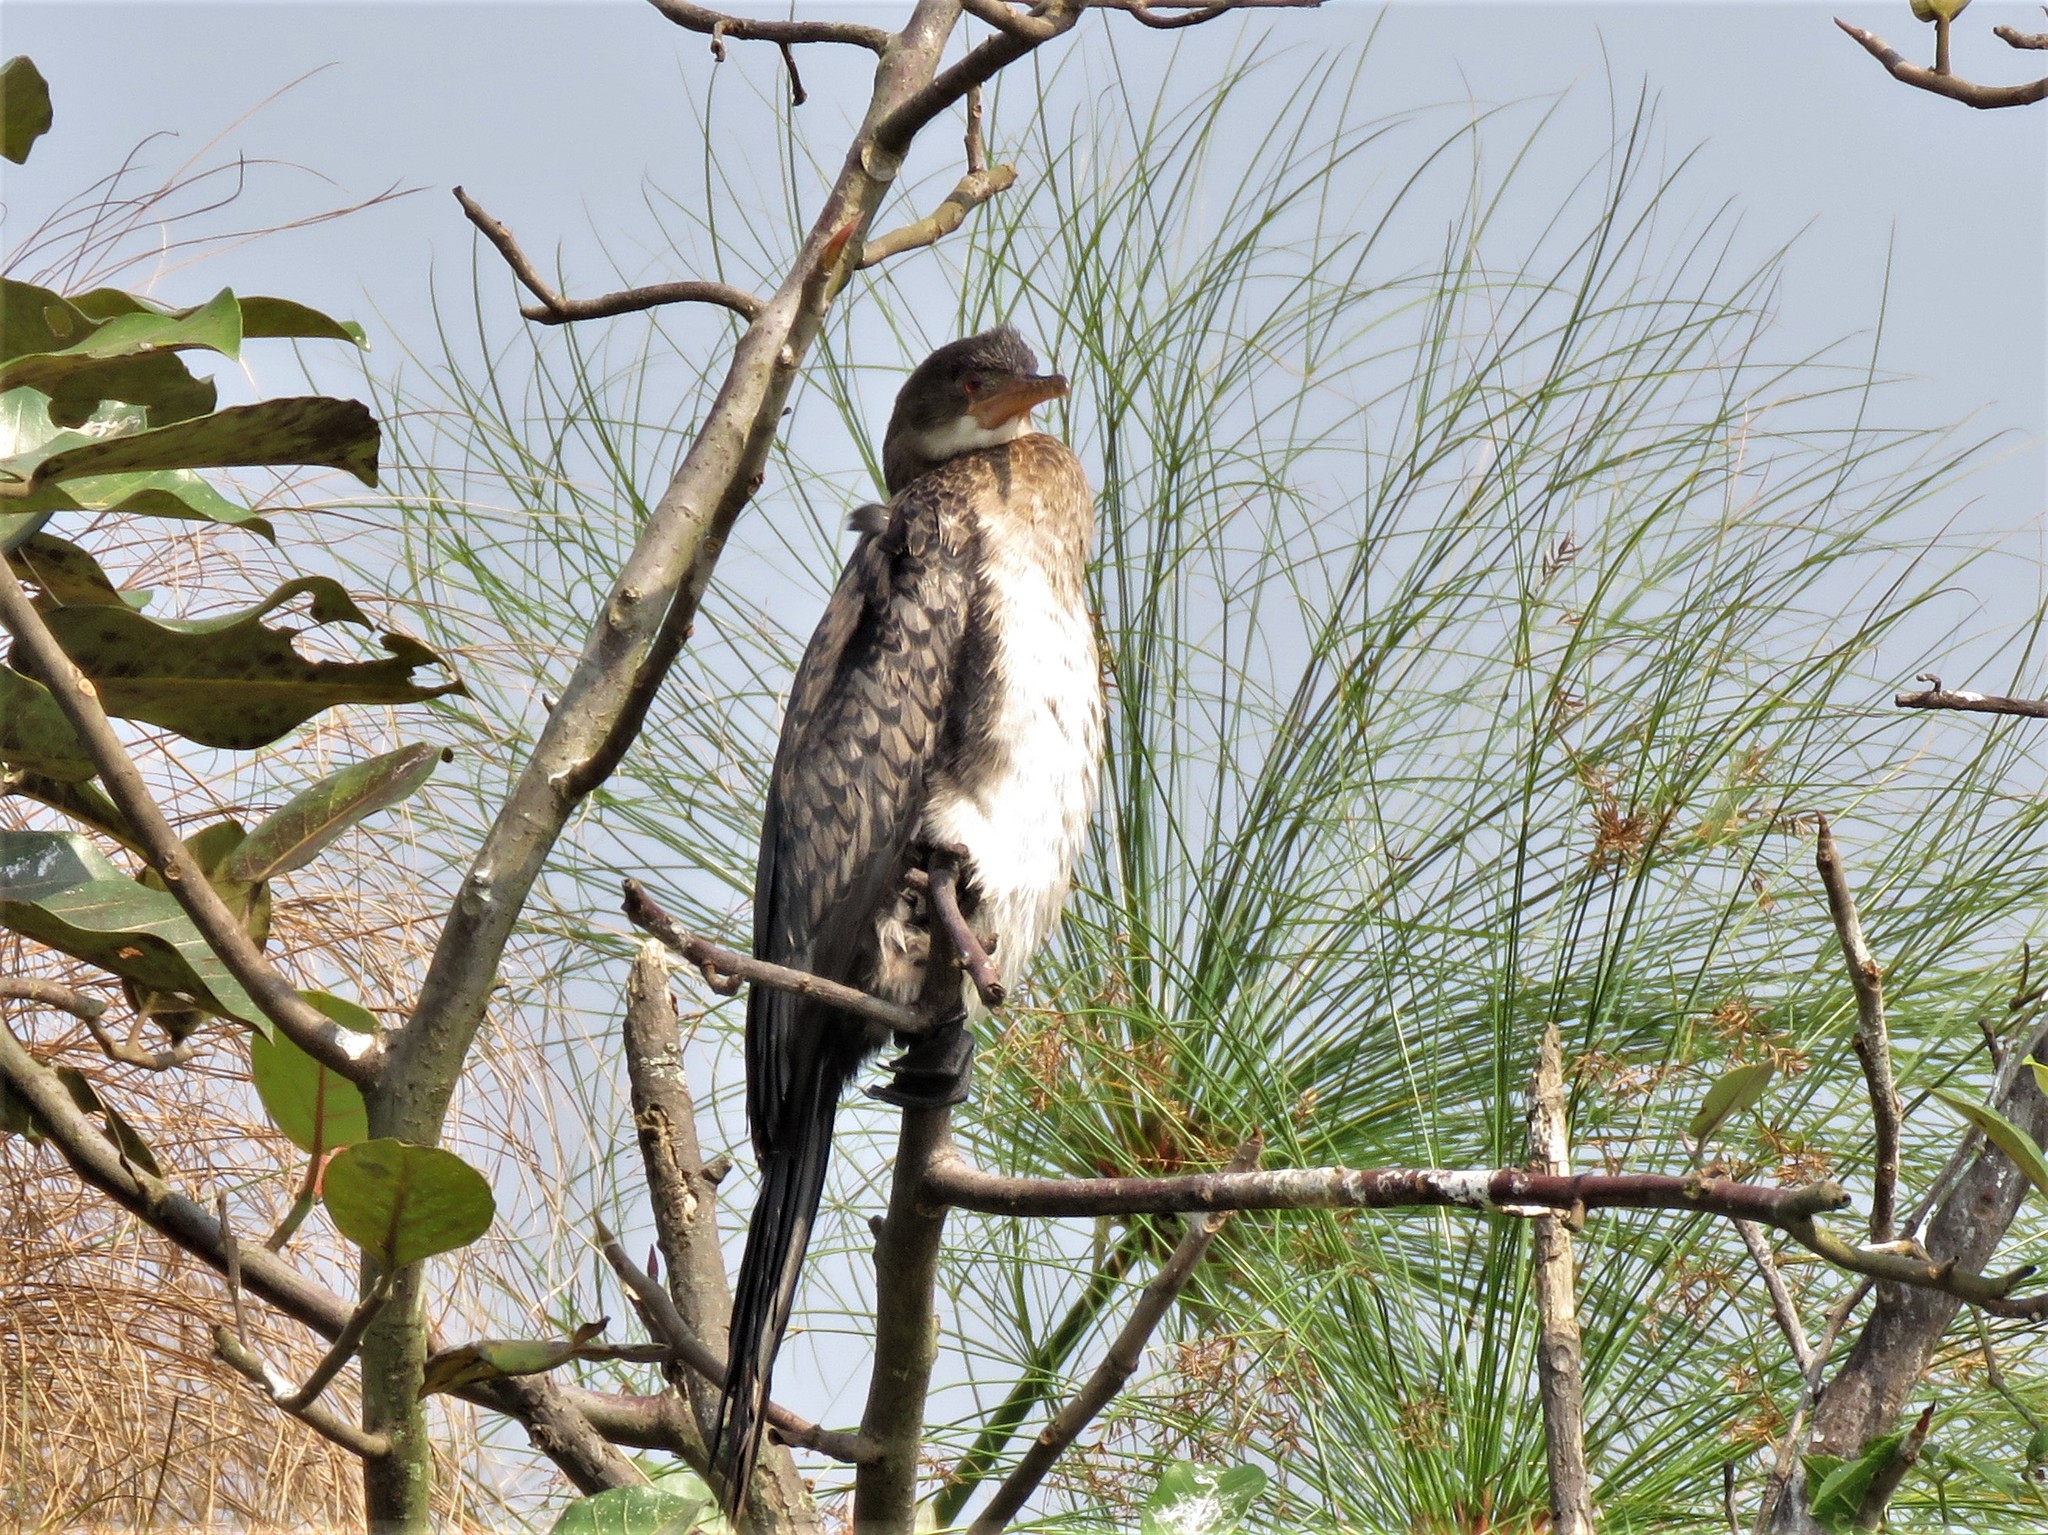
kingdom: Animalia
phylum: Chordata
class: Aves
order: Suliformes
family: Phalacrocoracidae
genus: Microcarbo
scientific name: Microcarbo africanus
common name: Long-tailed cormorant
